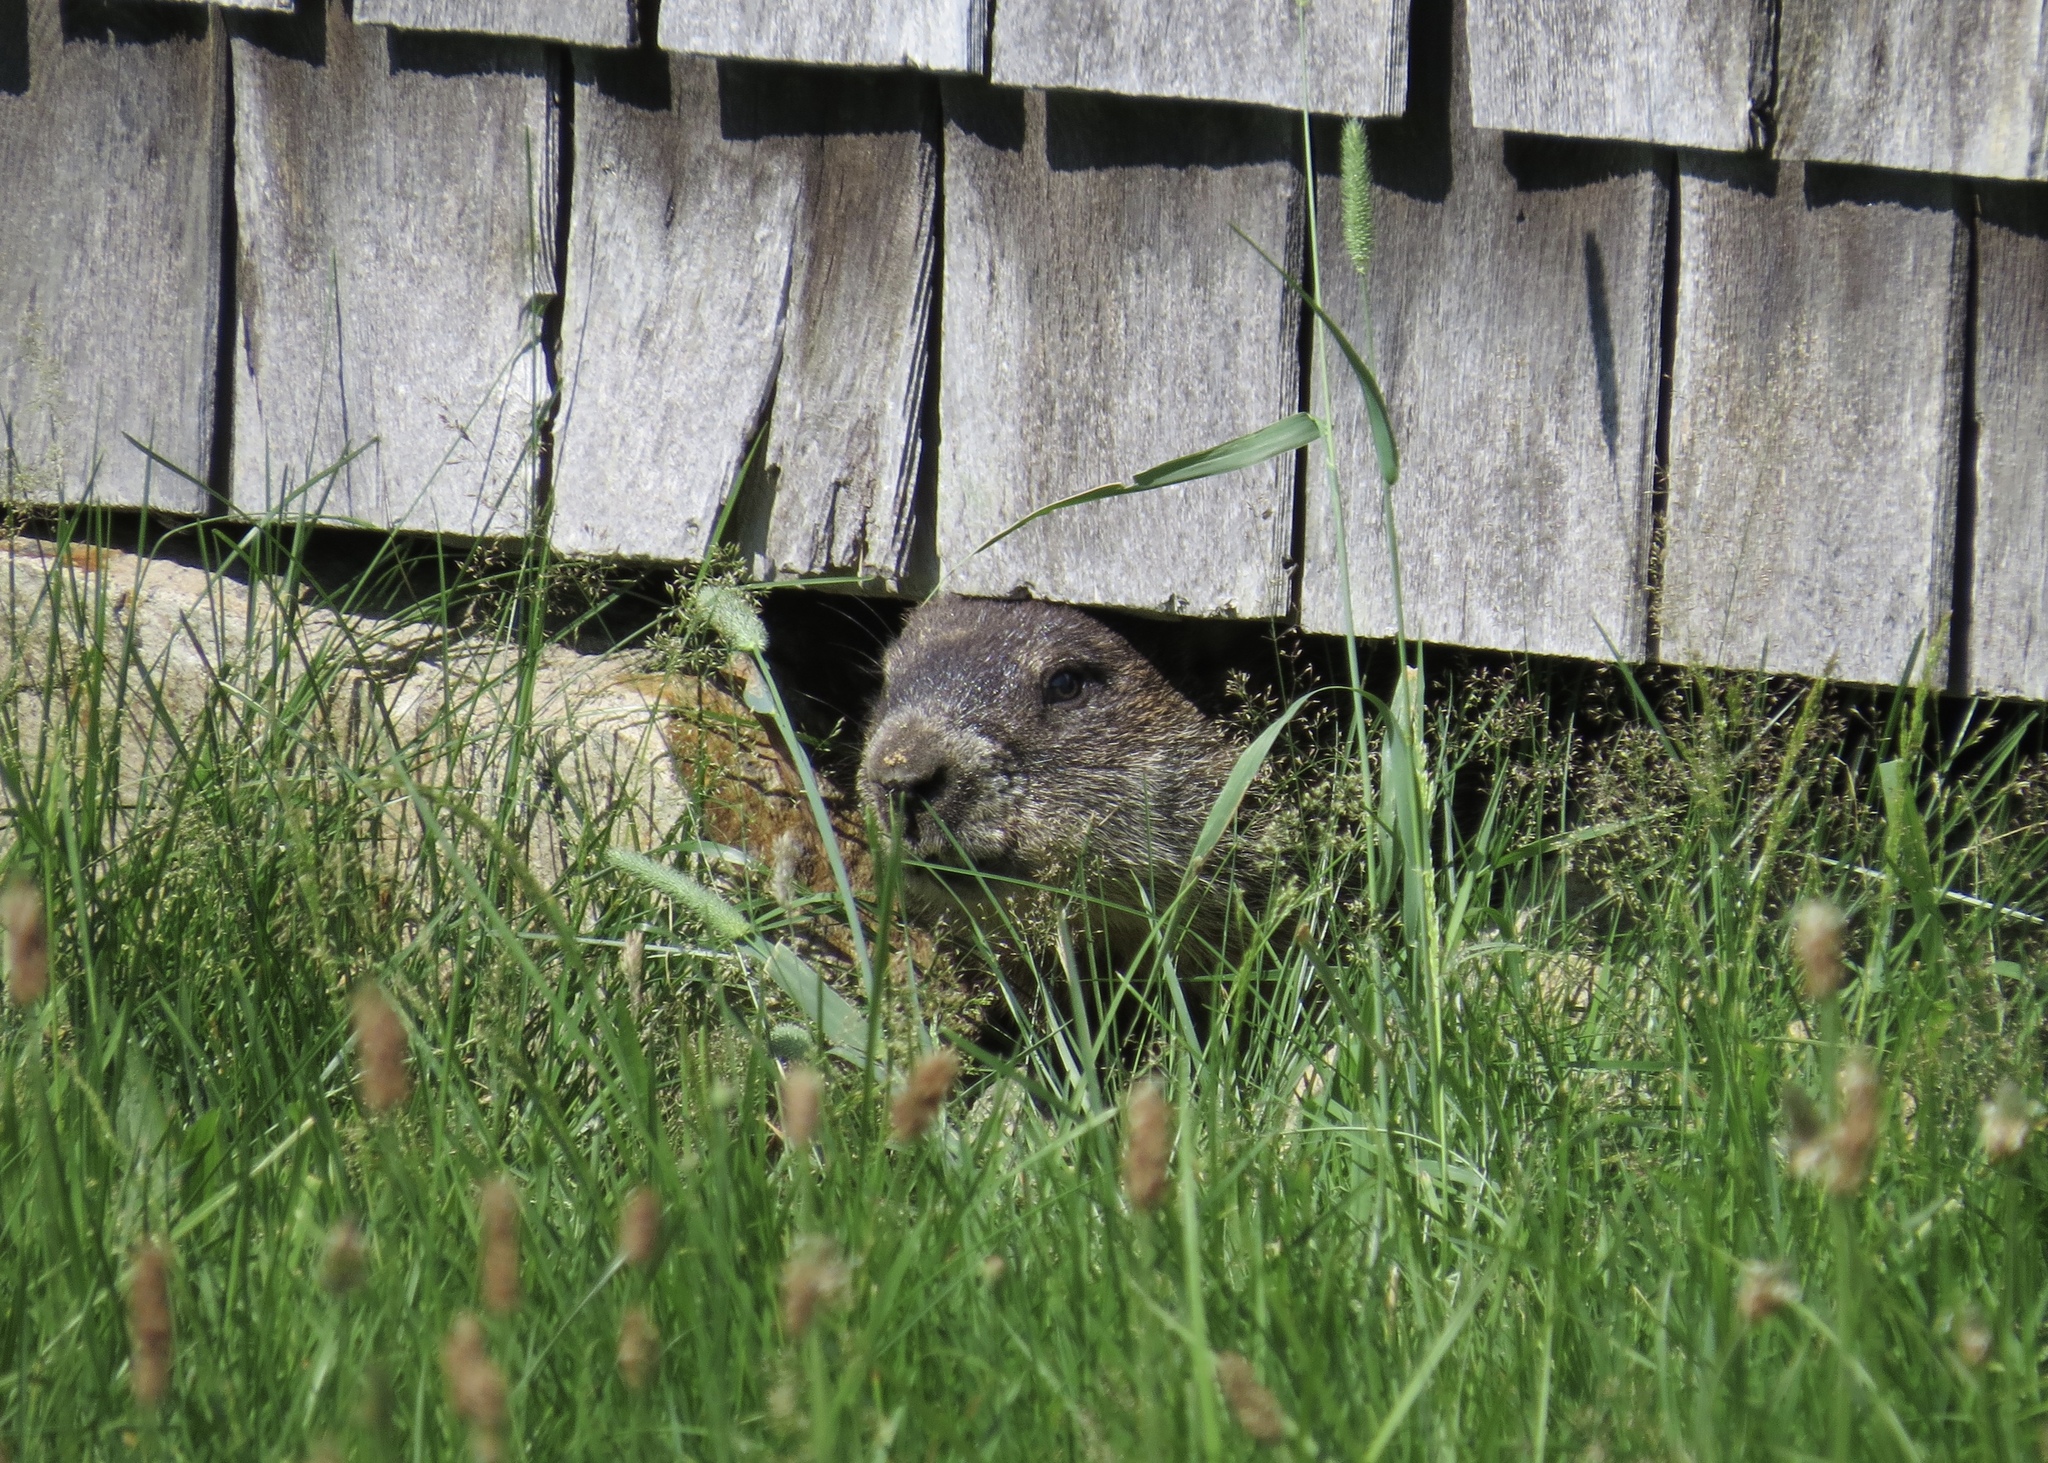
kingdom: Animalia
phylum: Chordata
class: Mammalia
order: Rodentia
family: Sciuridae
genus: Marmota
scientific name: Marmota monax
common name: Groundhog
